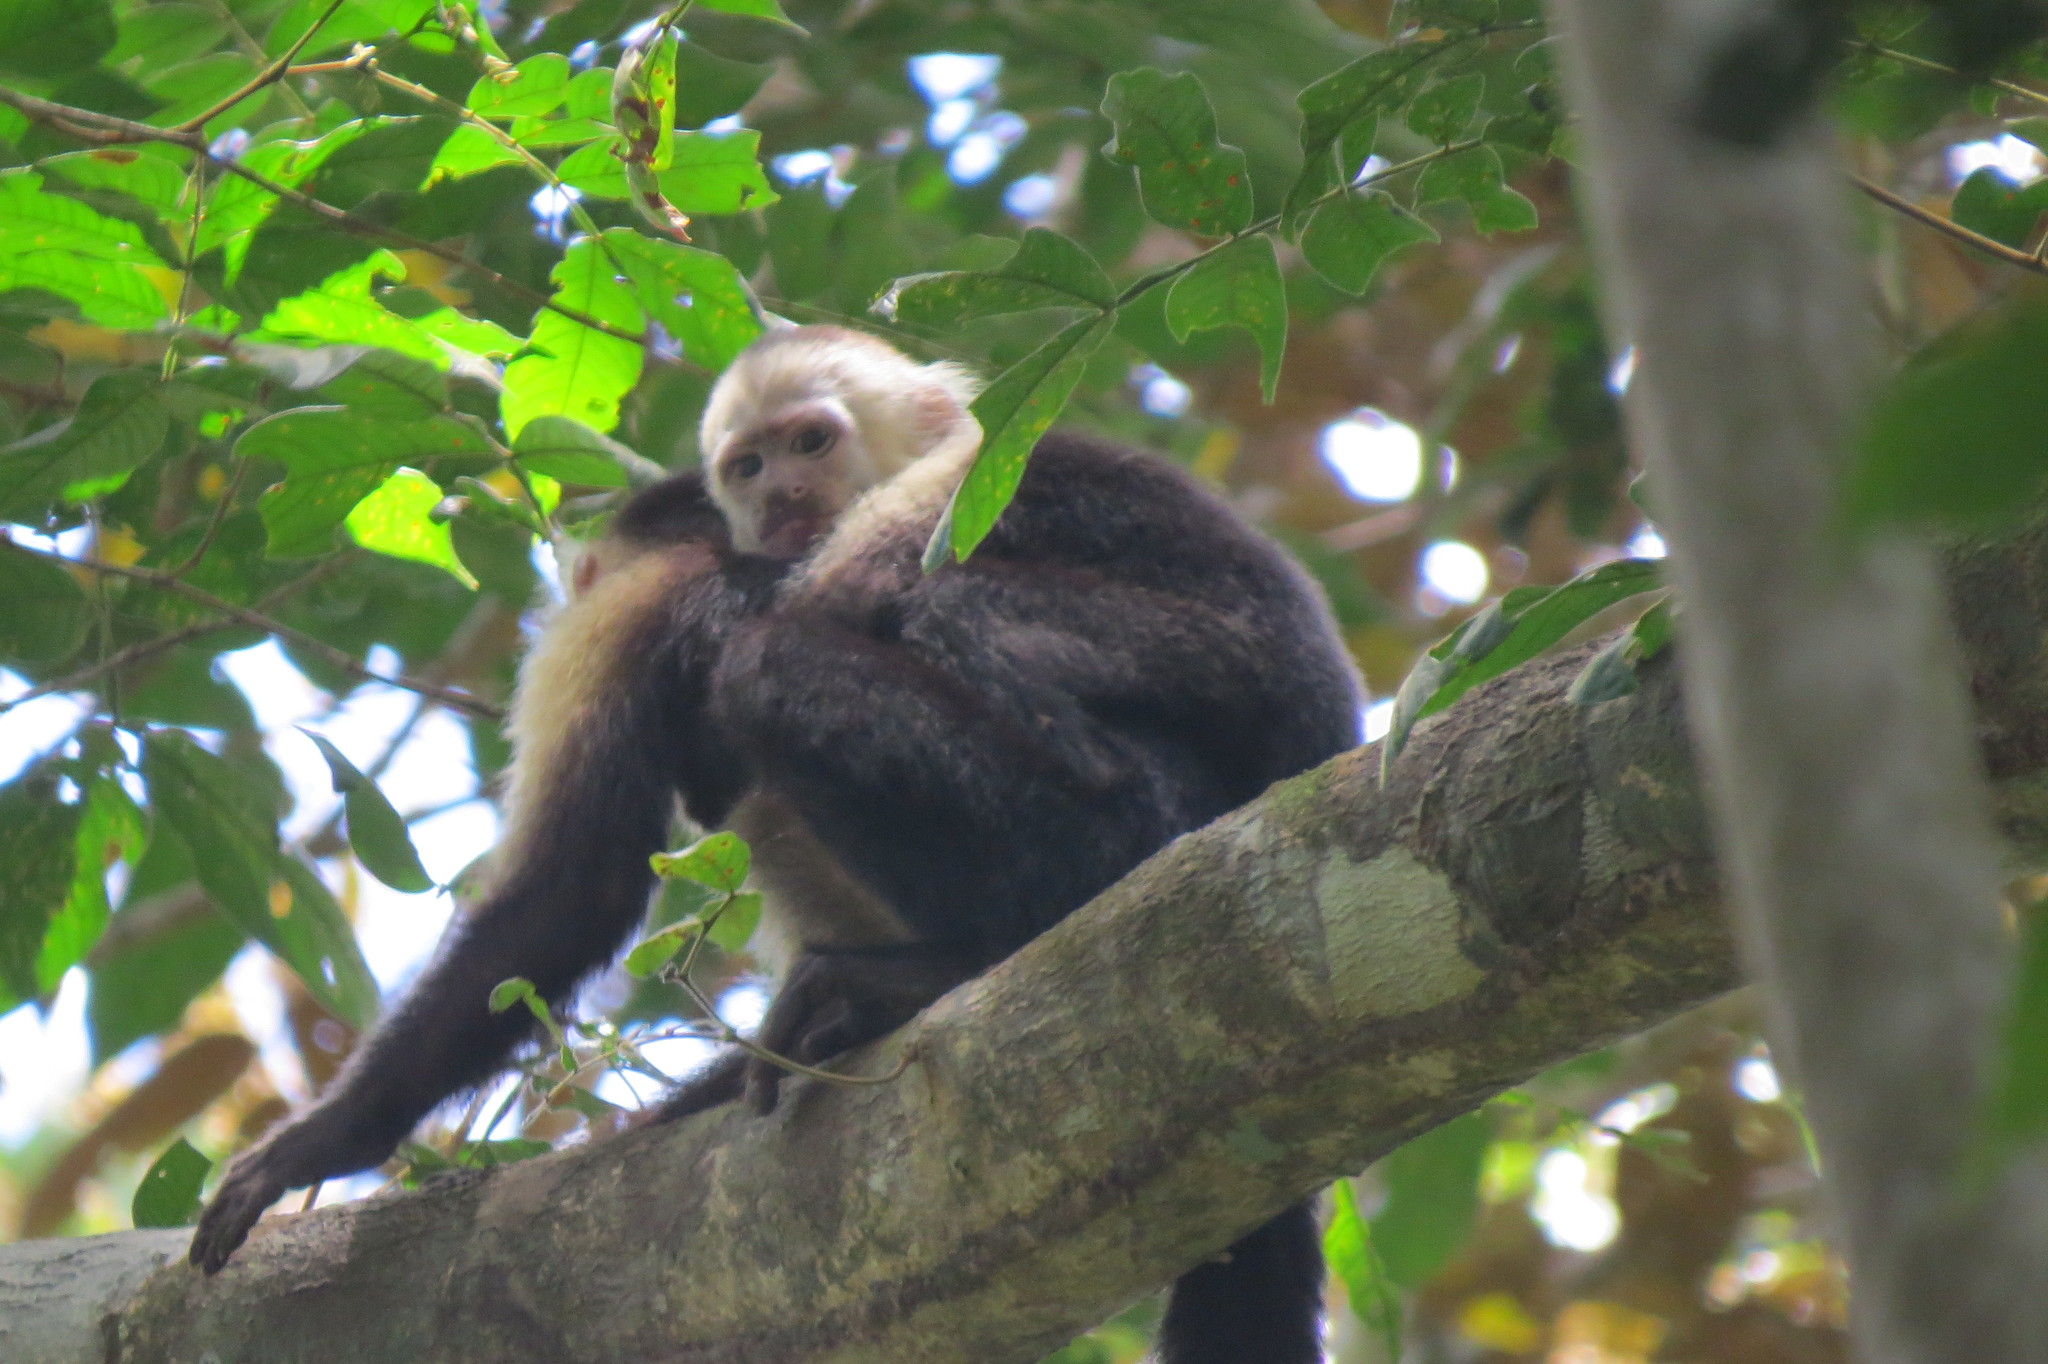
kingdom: Animalia
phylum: Chordata
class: Mammalia
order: Primates
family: Cebidae
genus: Cebus
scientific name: Cebus imitator
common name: Panamanian white-faced capuchin
